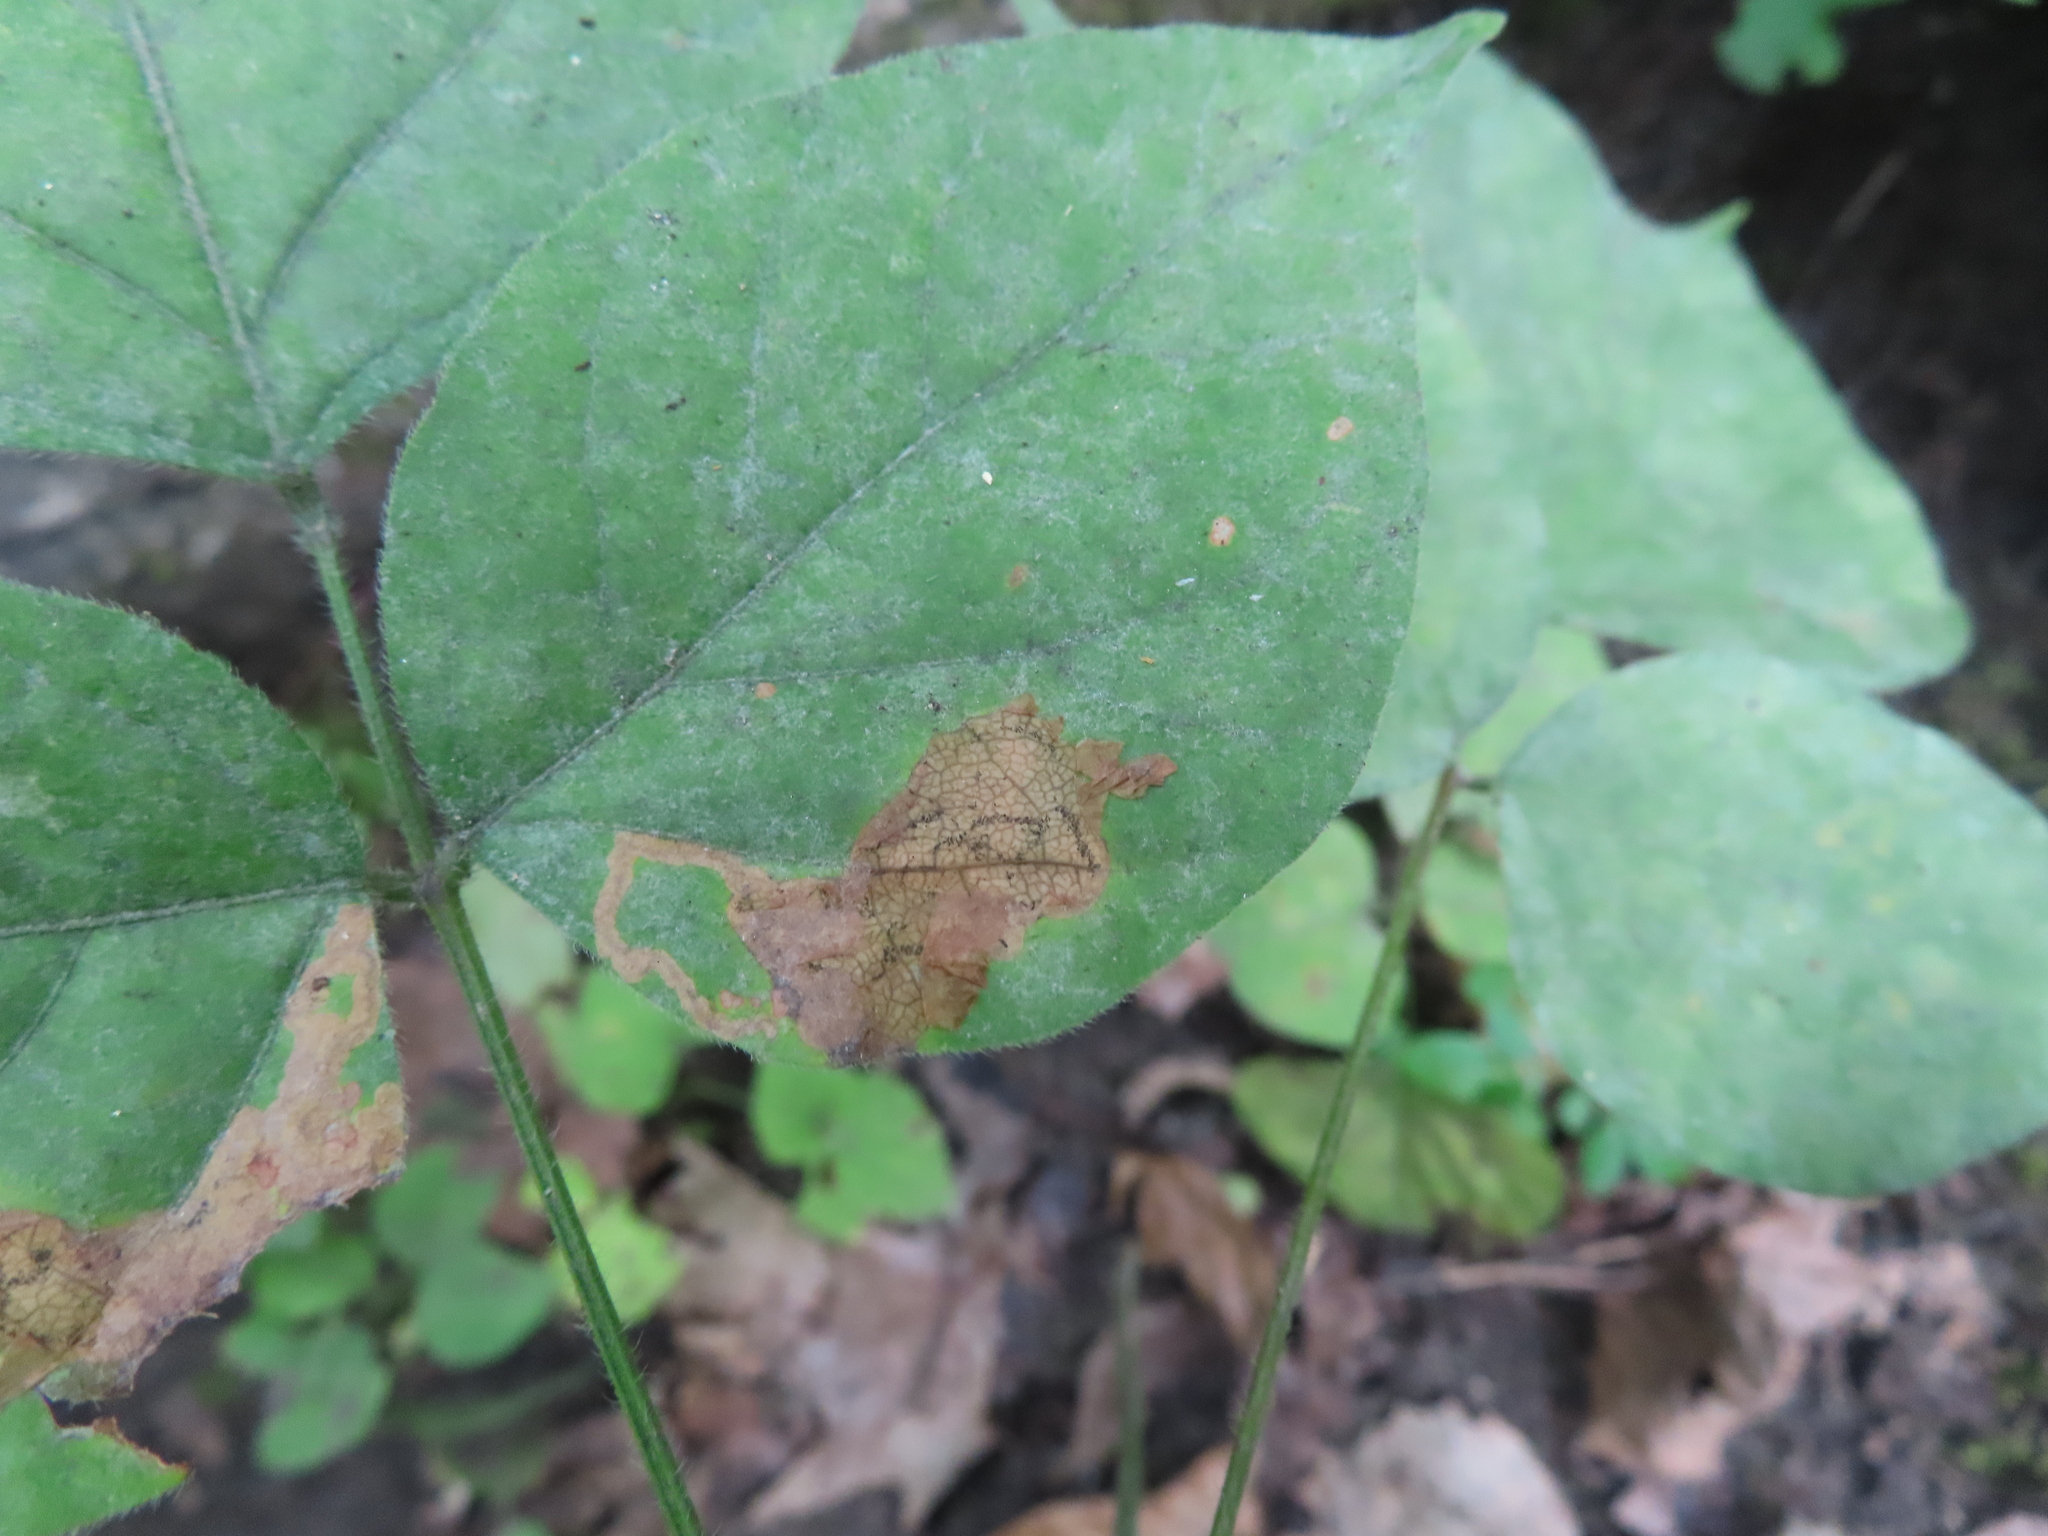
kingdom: Animalia
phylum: Arthropoda
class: Insecta
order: Coleoptera
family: Buprestidae
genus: Pachyschelus
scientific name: Pachyschelus laevigatus
